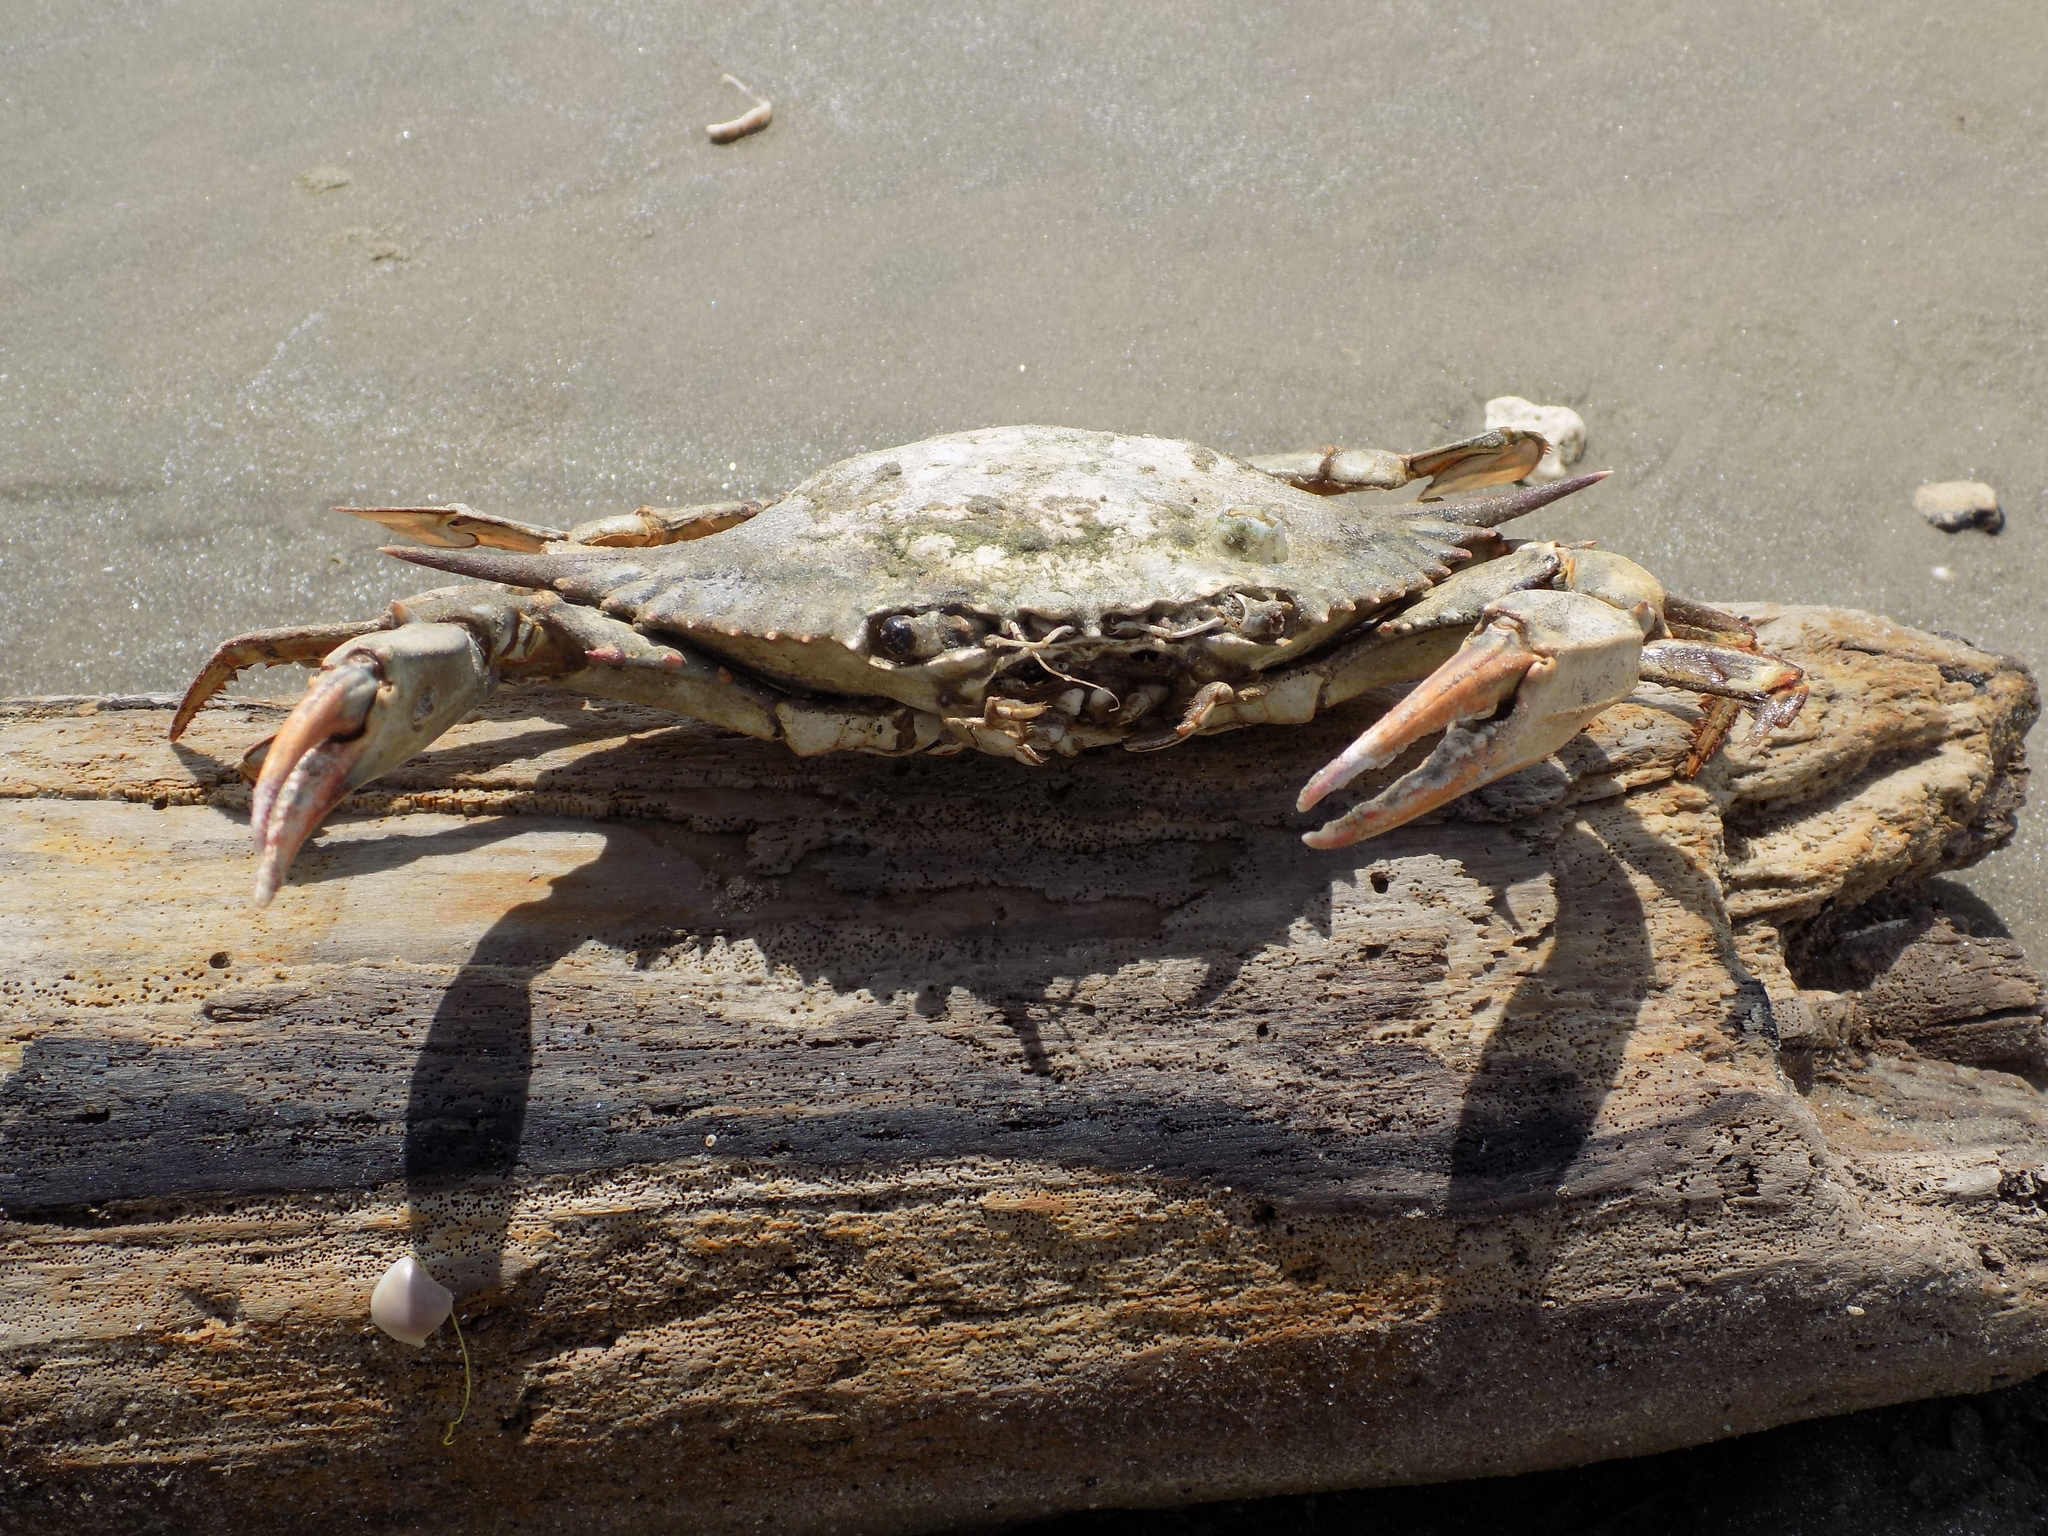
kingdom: Animalia
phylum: Arthropoda
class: Malacostraca
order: Decapoda
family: Portunidae
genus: Callinectes
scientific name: Callinectes sapidus
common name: Blue crab
